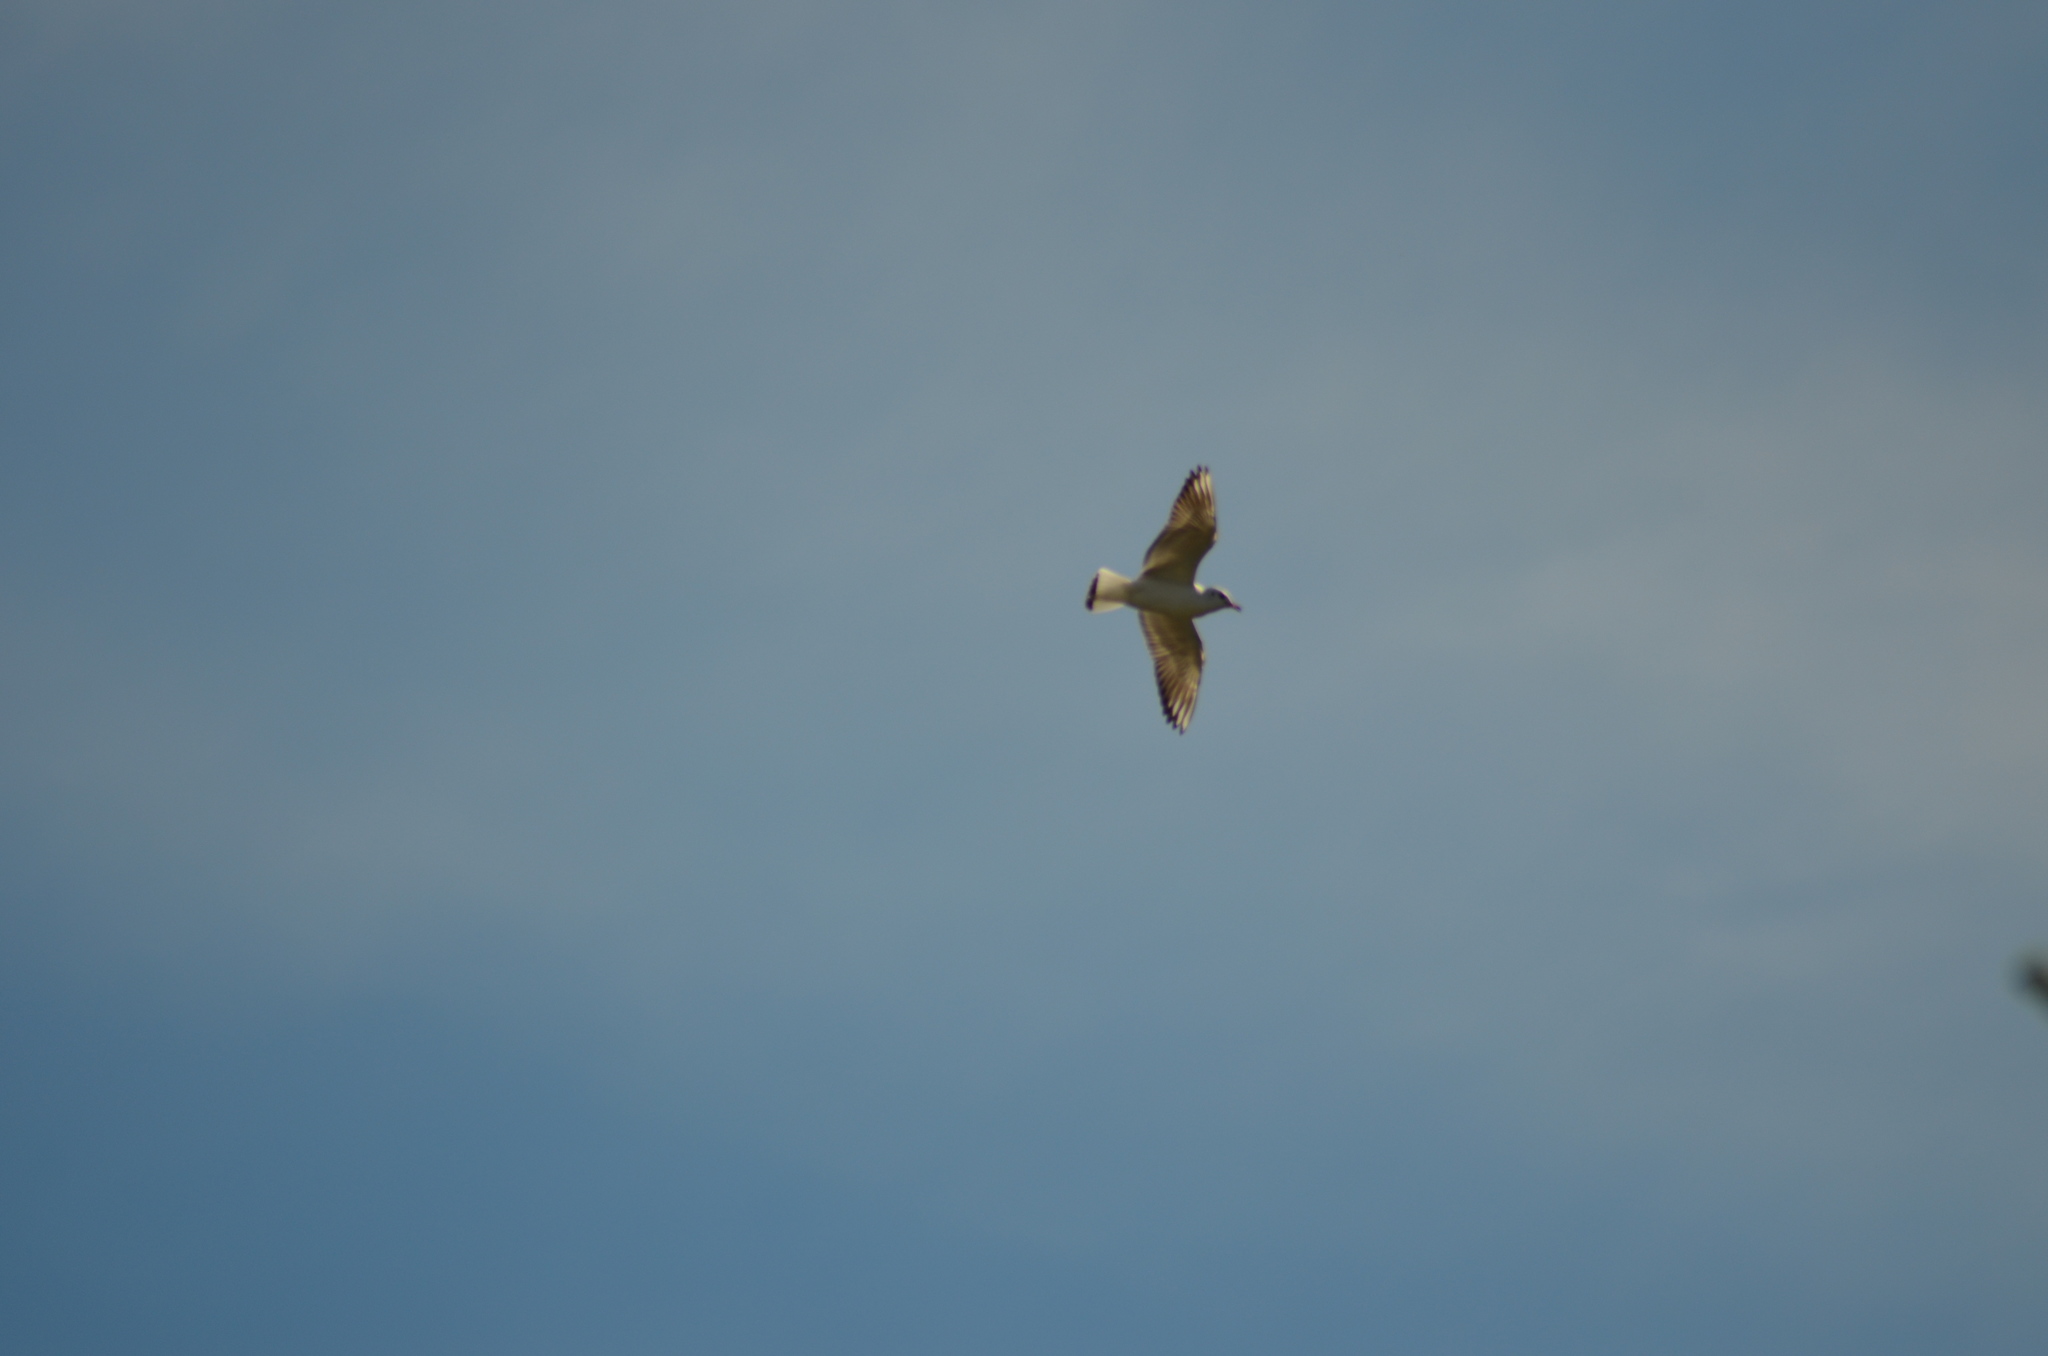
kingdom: Animalia
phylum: Chordata
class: Aves
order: Charadriiformes
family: Laridae
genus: Chroicocephalus
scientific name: Chroicocephalus ridibundus
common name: Black-headed gull
